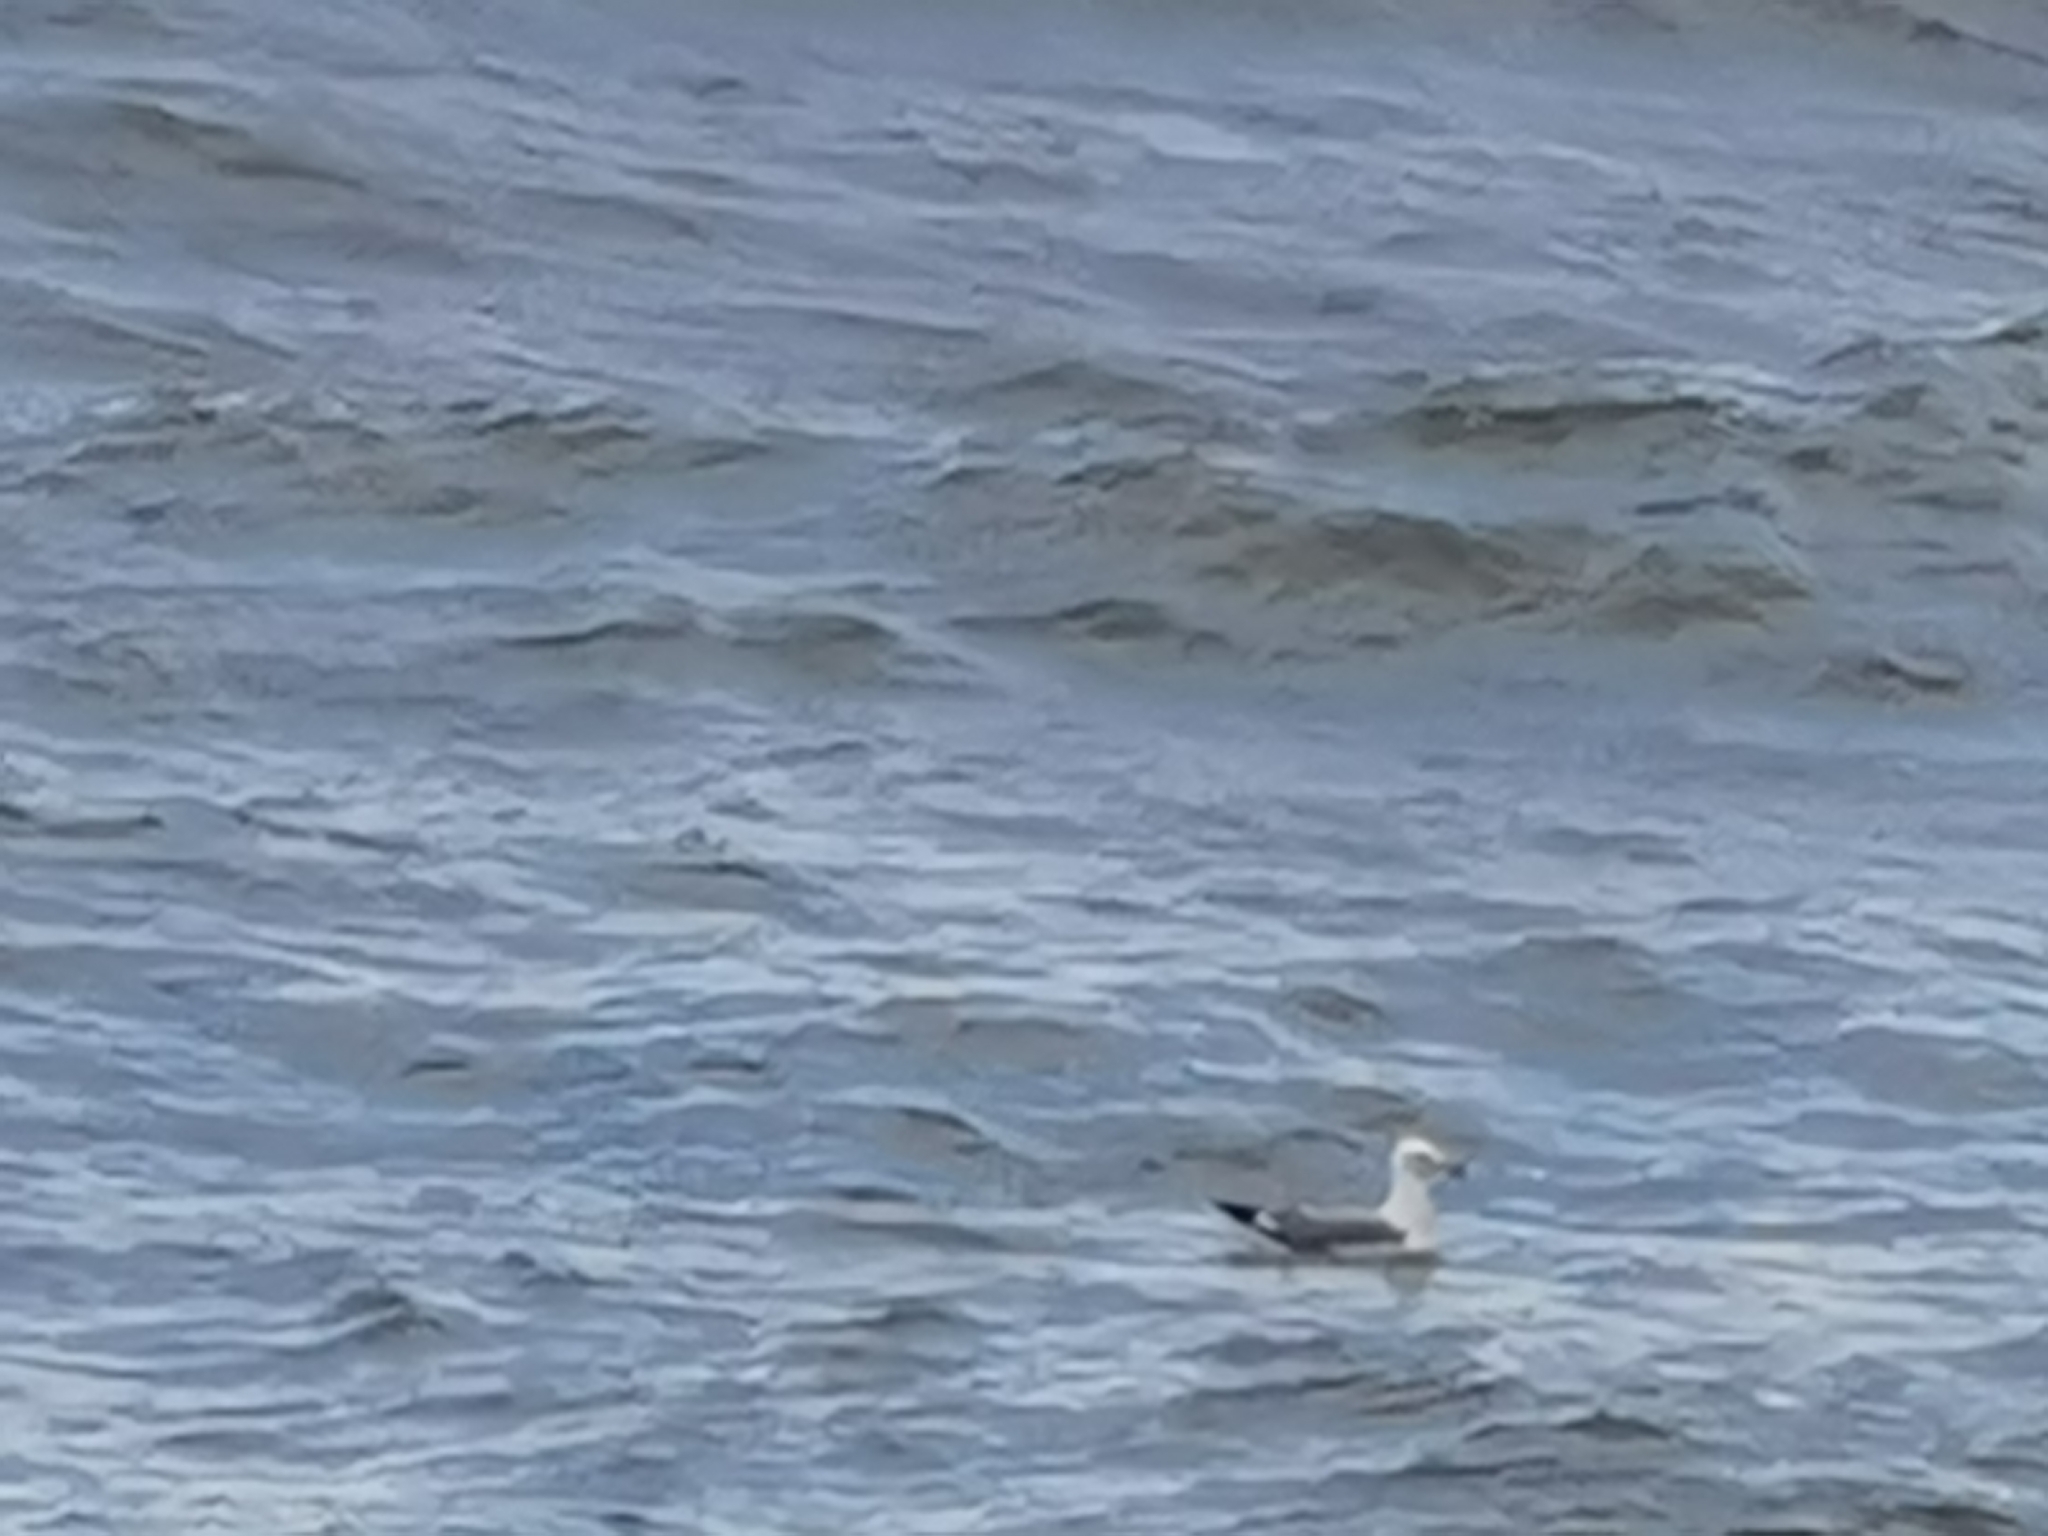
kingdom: Animalia
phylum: Chordata
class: Aves
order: Charadriiformes
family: Laridae
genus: Larus
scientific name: Larus michahellis
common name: Yellow-legged gull
